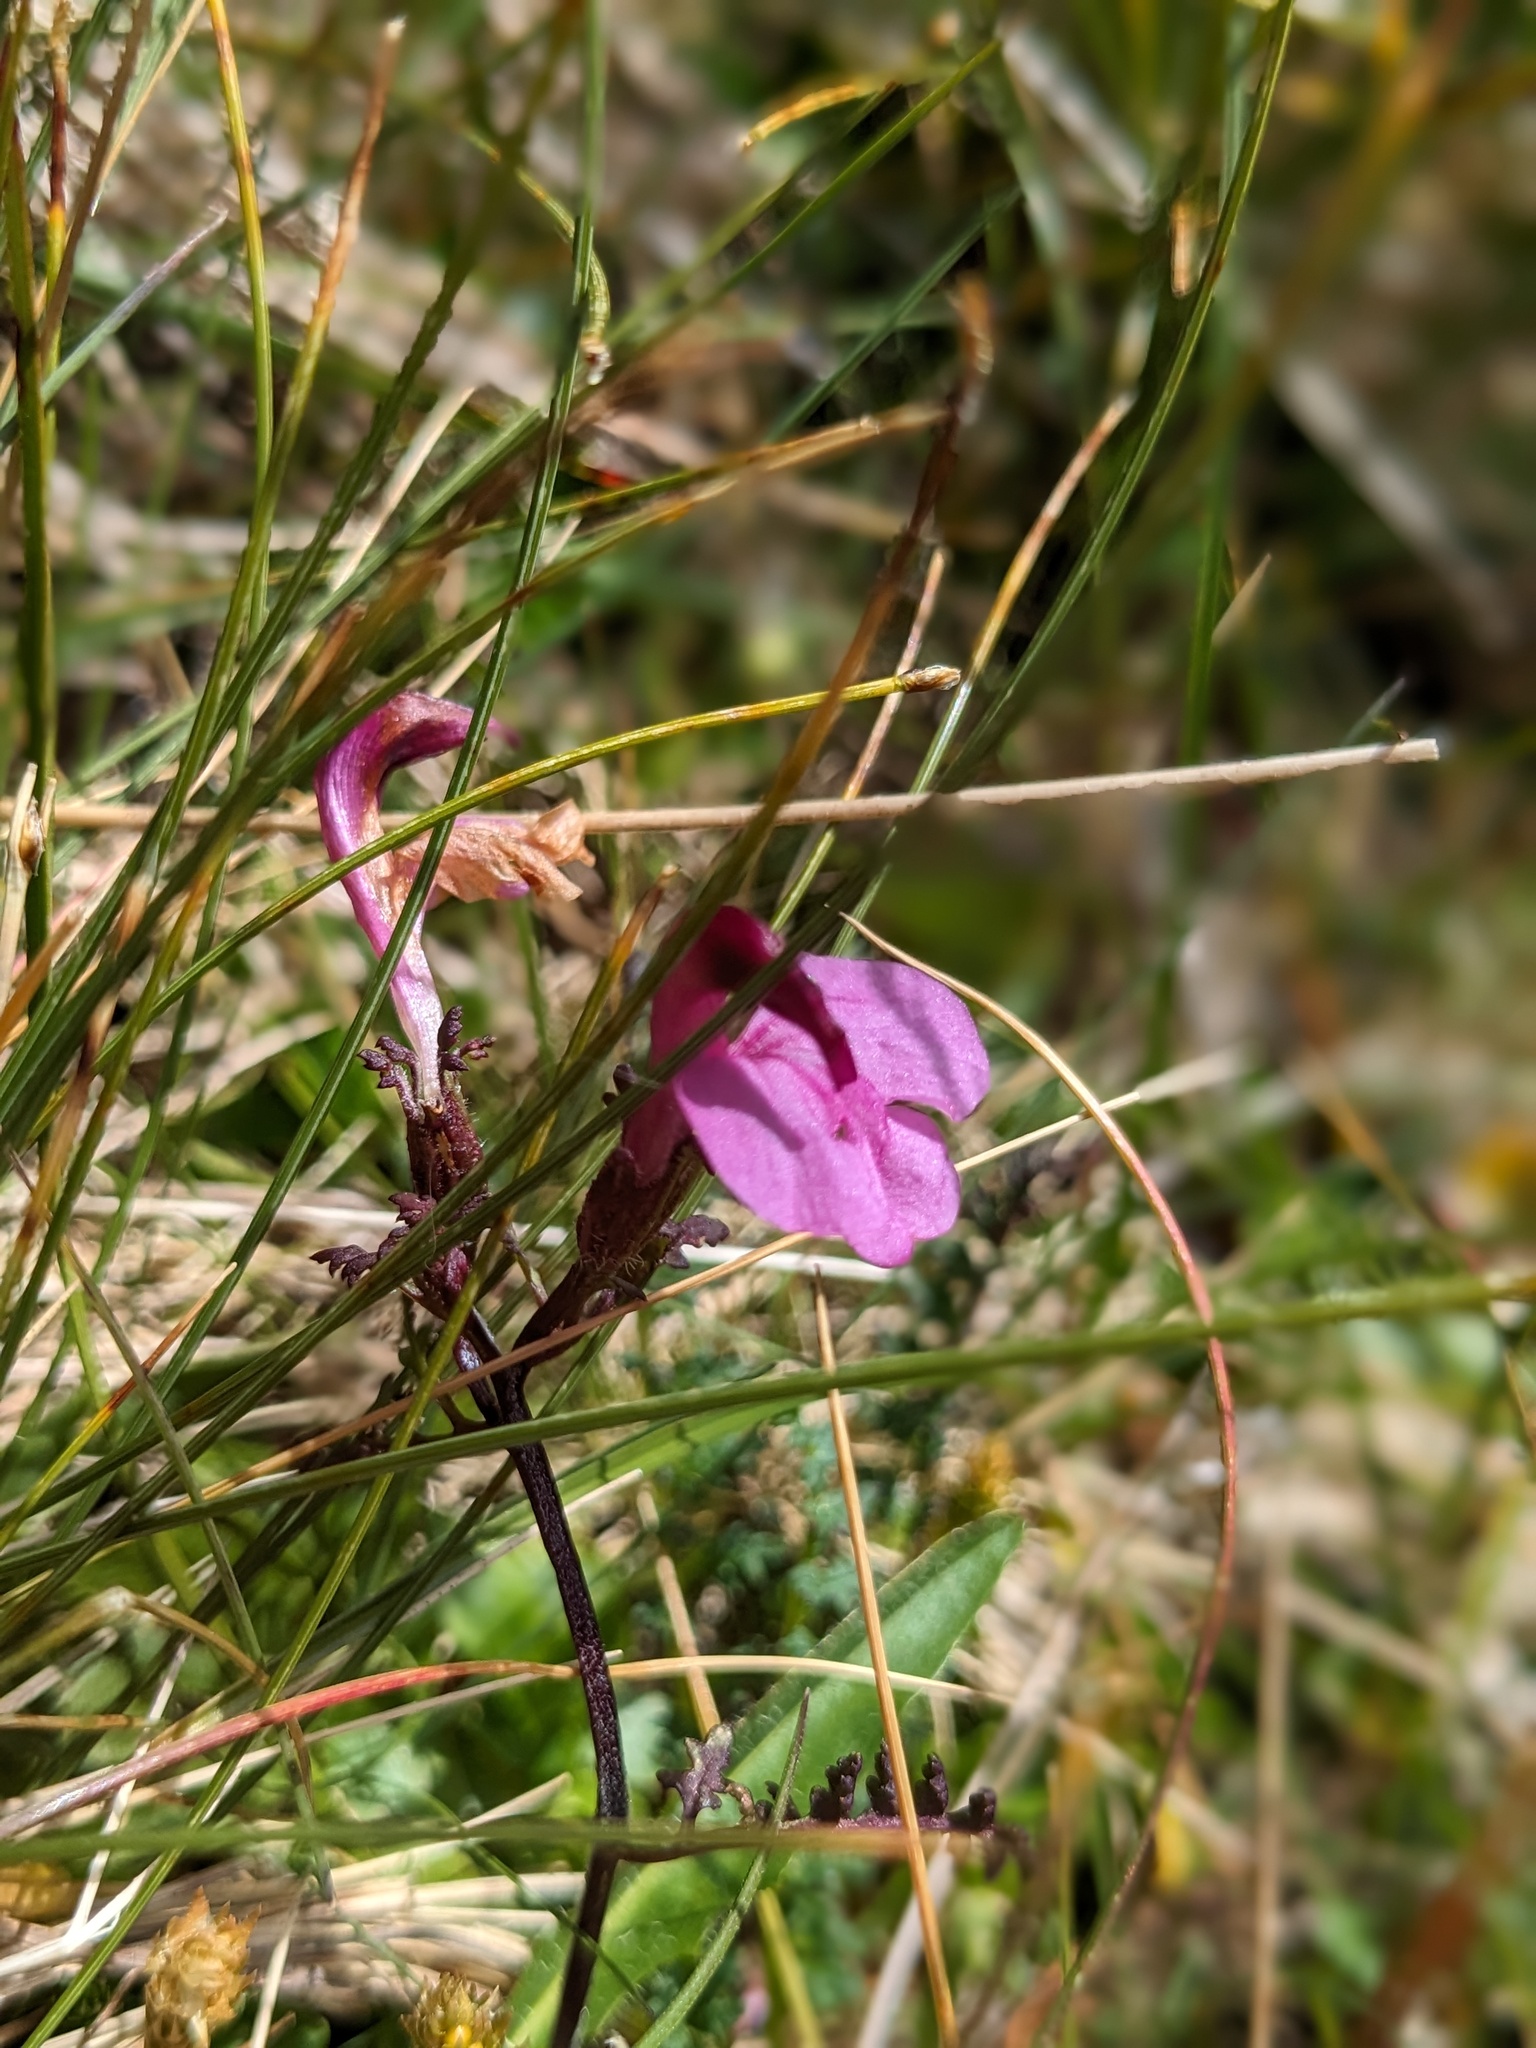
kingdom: Plantae
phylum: Tracheophyta
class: Magnoliopsida
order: Lamiales
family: Orobanchaceae
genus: Pedicularis
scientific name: Pedicularis kerneri
